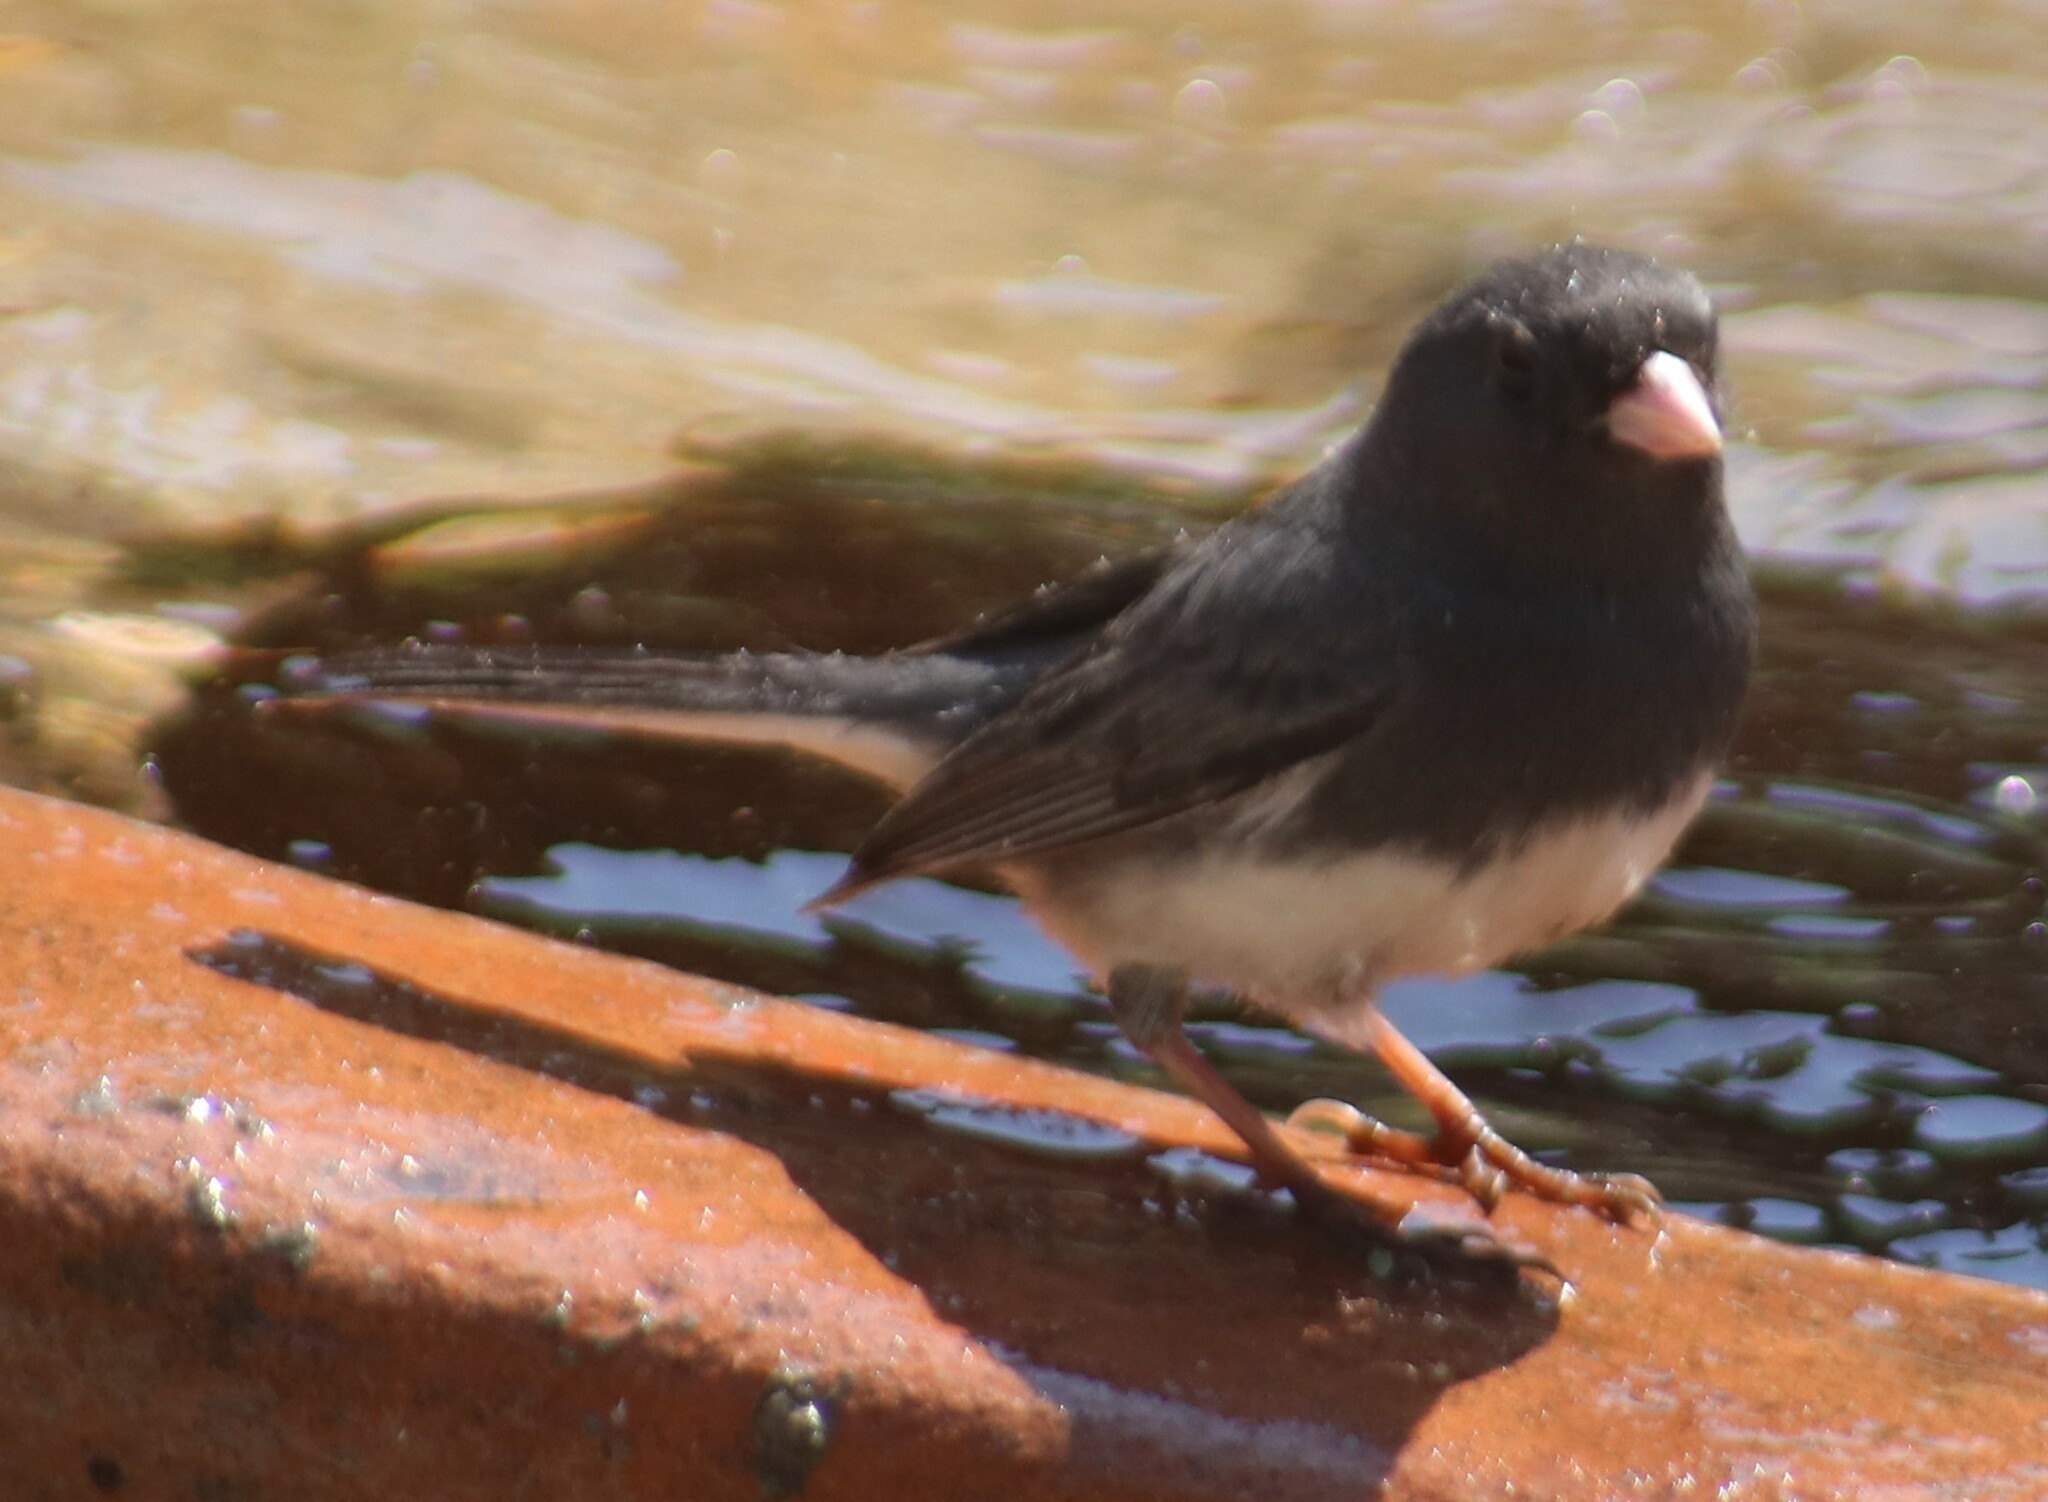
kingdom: Animalia
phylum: Chordata
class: Aves
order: Passeriformes
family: Passerellidae
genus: Junco
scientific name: Junco hyemalis
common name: Dark-eyed junco
